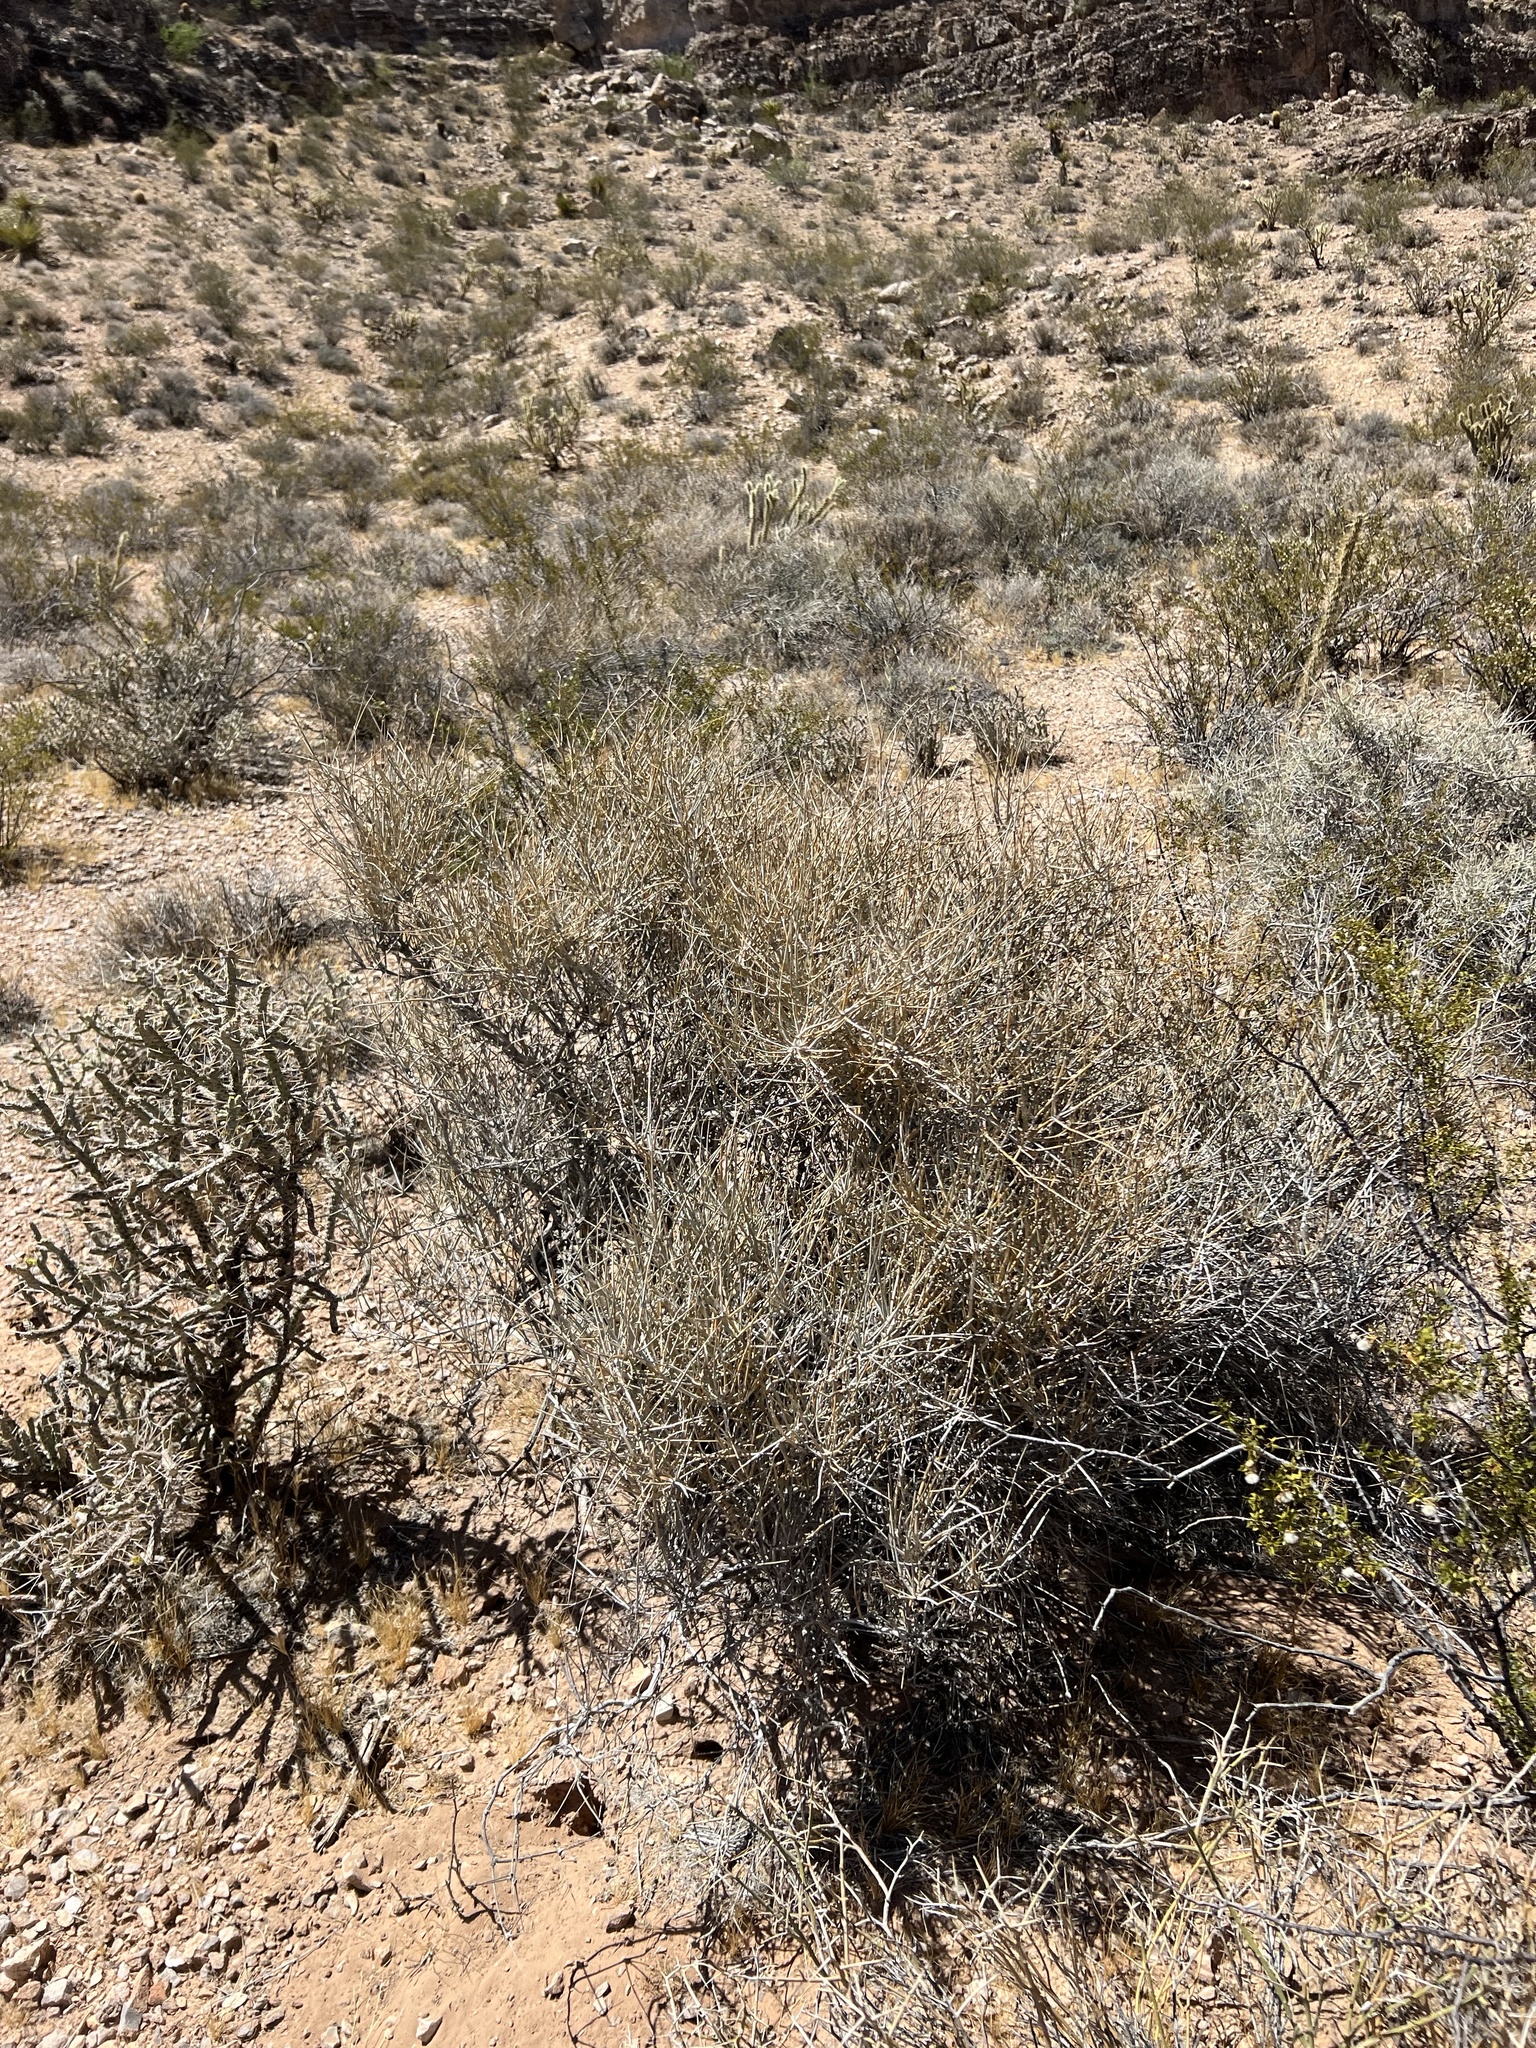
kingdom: Plantae
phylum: Tracheophyta
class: Gnetopsida
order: Ephedrales
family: Ephedraceae
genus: Ephedra
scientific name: Ephedra nevadensis
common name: Gray ephedra
